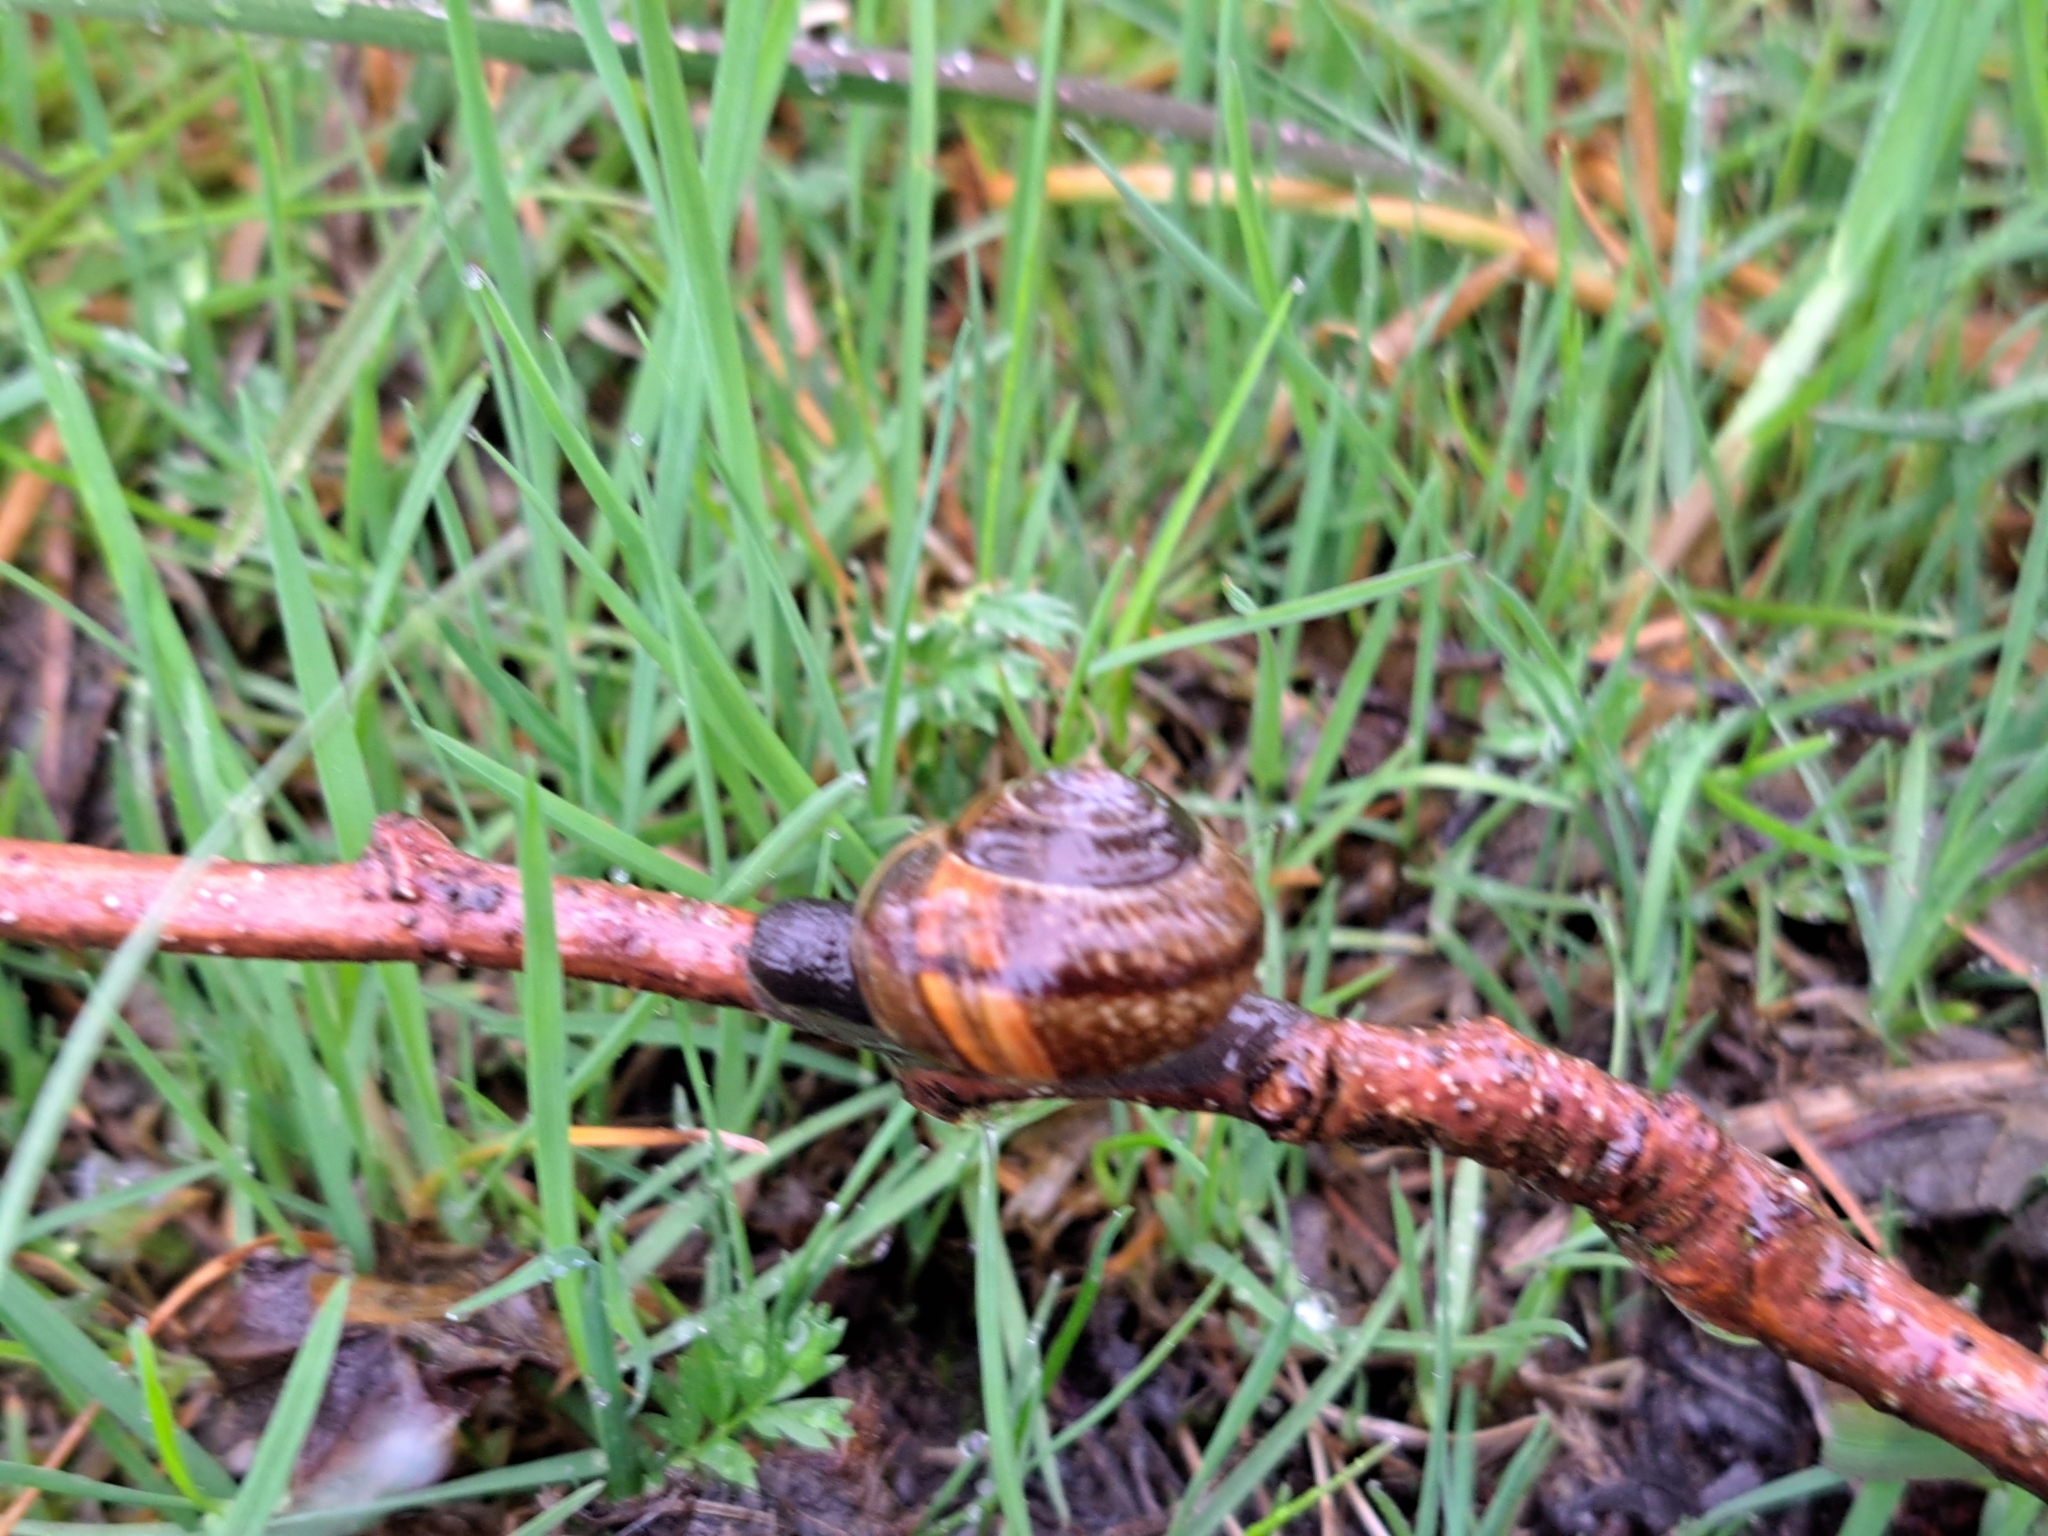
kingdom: Animalia
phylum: Mollusca
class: Gastropoda
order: Stylommatophora
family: Helicidae
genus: Arianta
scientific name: Arianta arbustorum
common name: Copse snail
